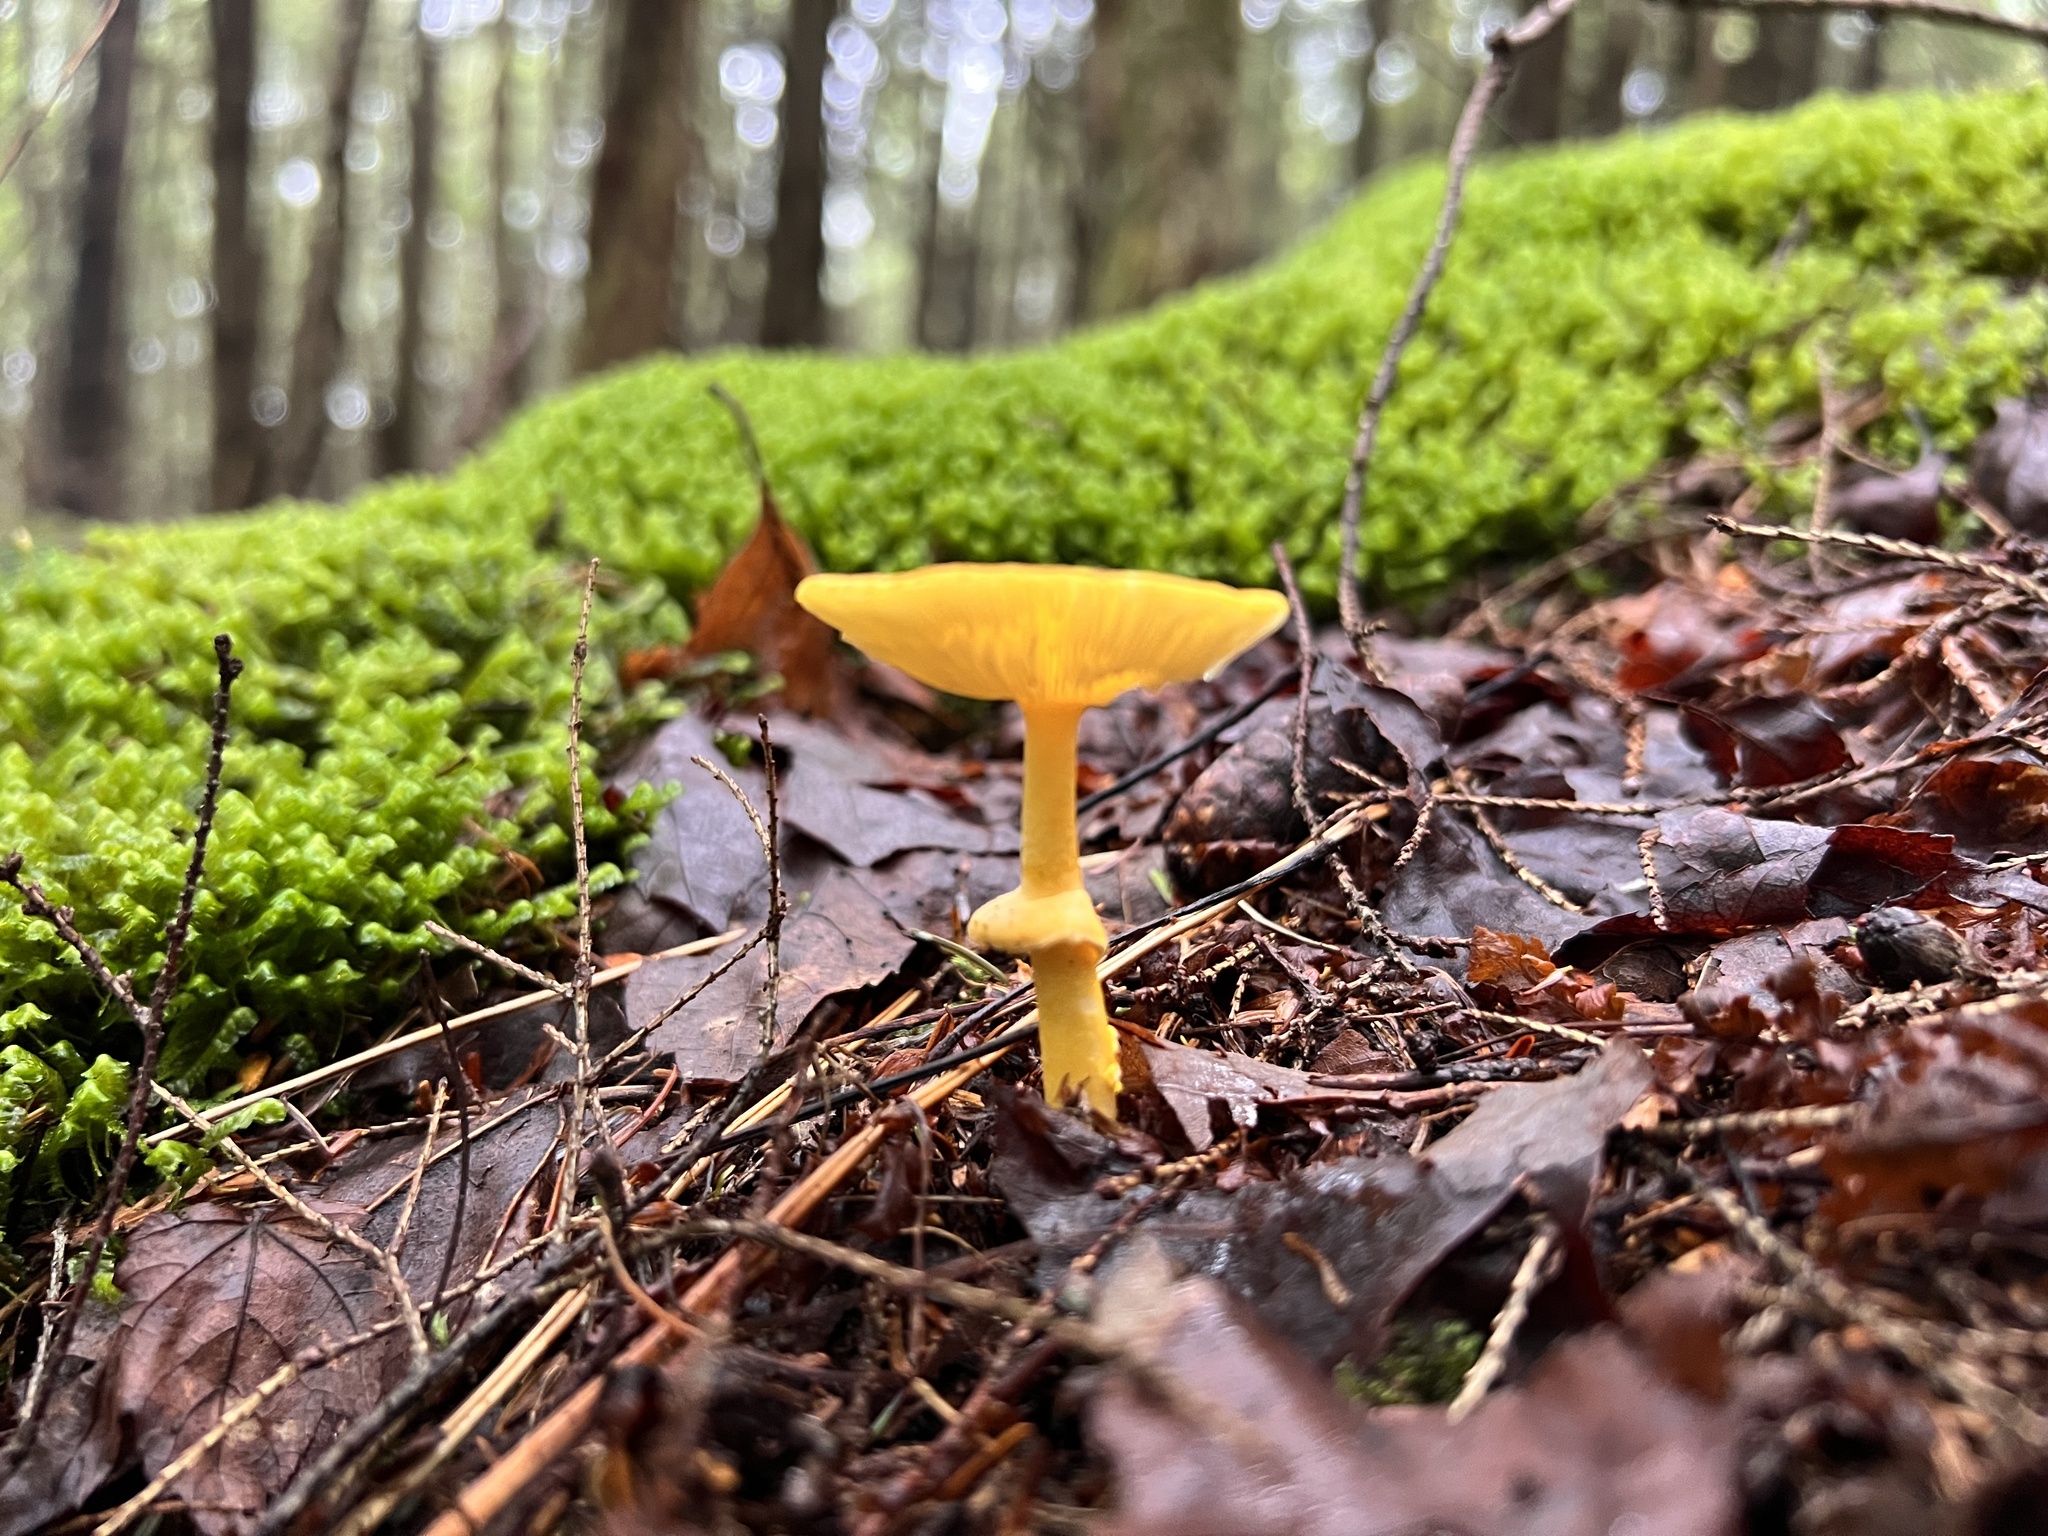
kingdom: Fungi
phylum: Basidiomycota
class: Agaricomycetes
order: Agaricales
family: Amanitaceae
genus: Amanita
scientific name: Amanita flavoconia
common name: Yellow patches
